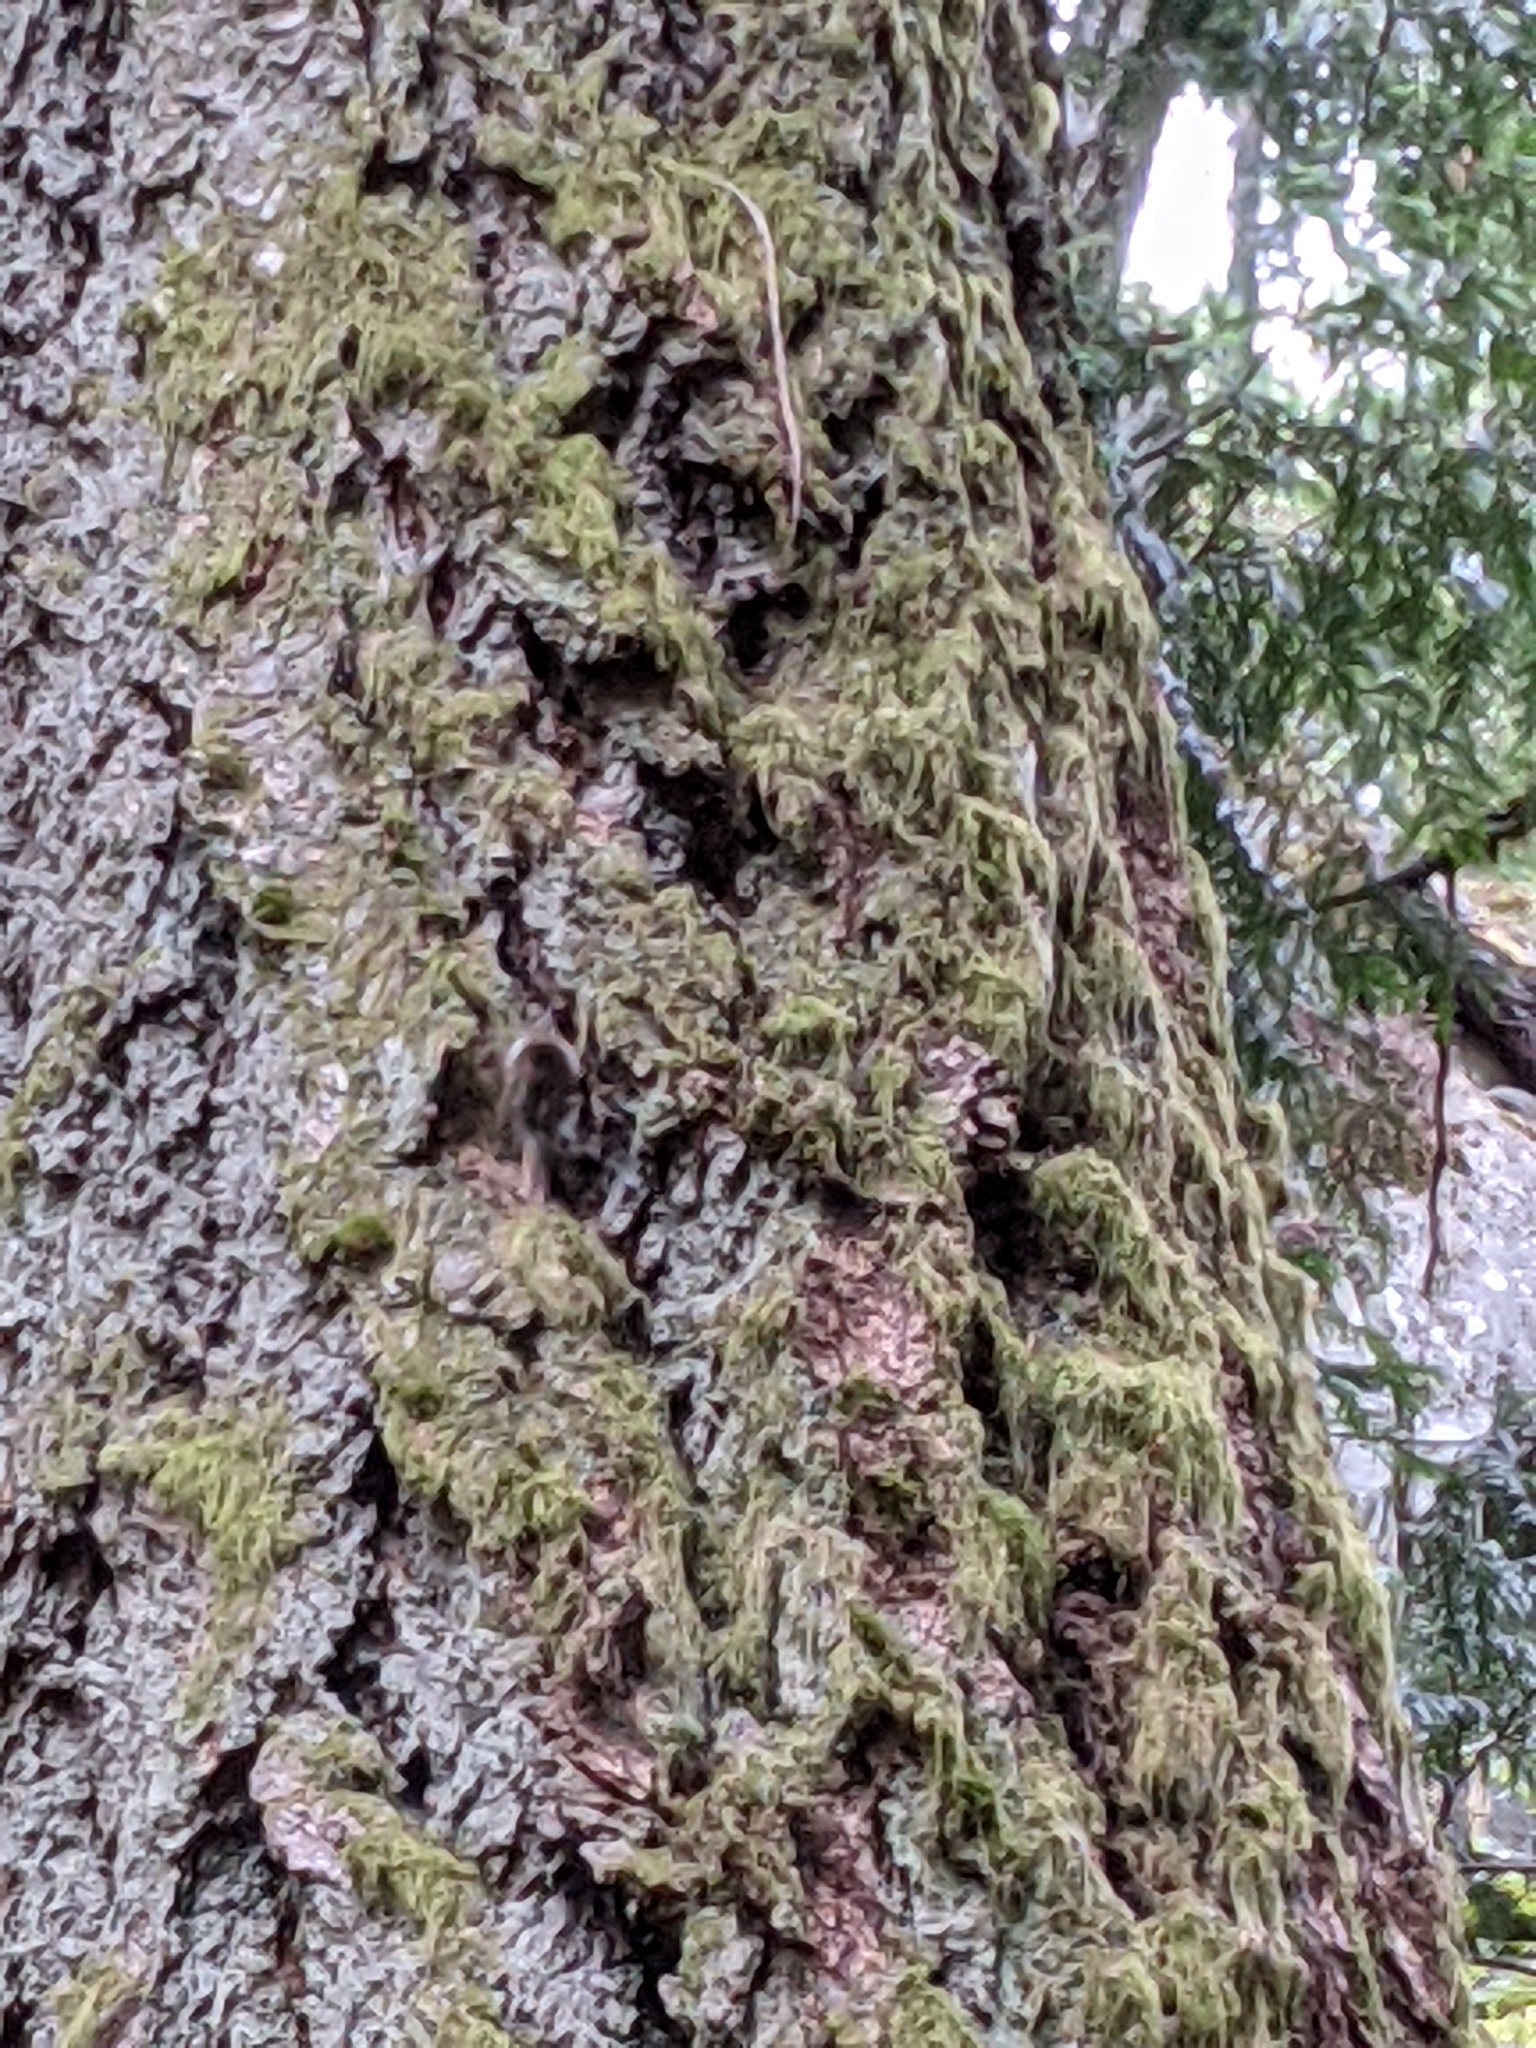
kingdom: Animalia
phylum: Chordata
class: Aves
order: Passeriformes
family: Certhiidae
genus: Certhia
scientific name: Certhia americana
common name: Brown creeper
